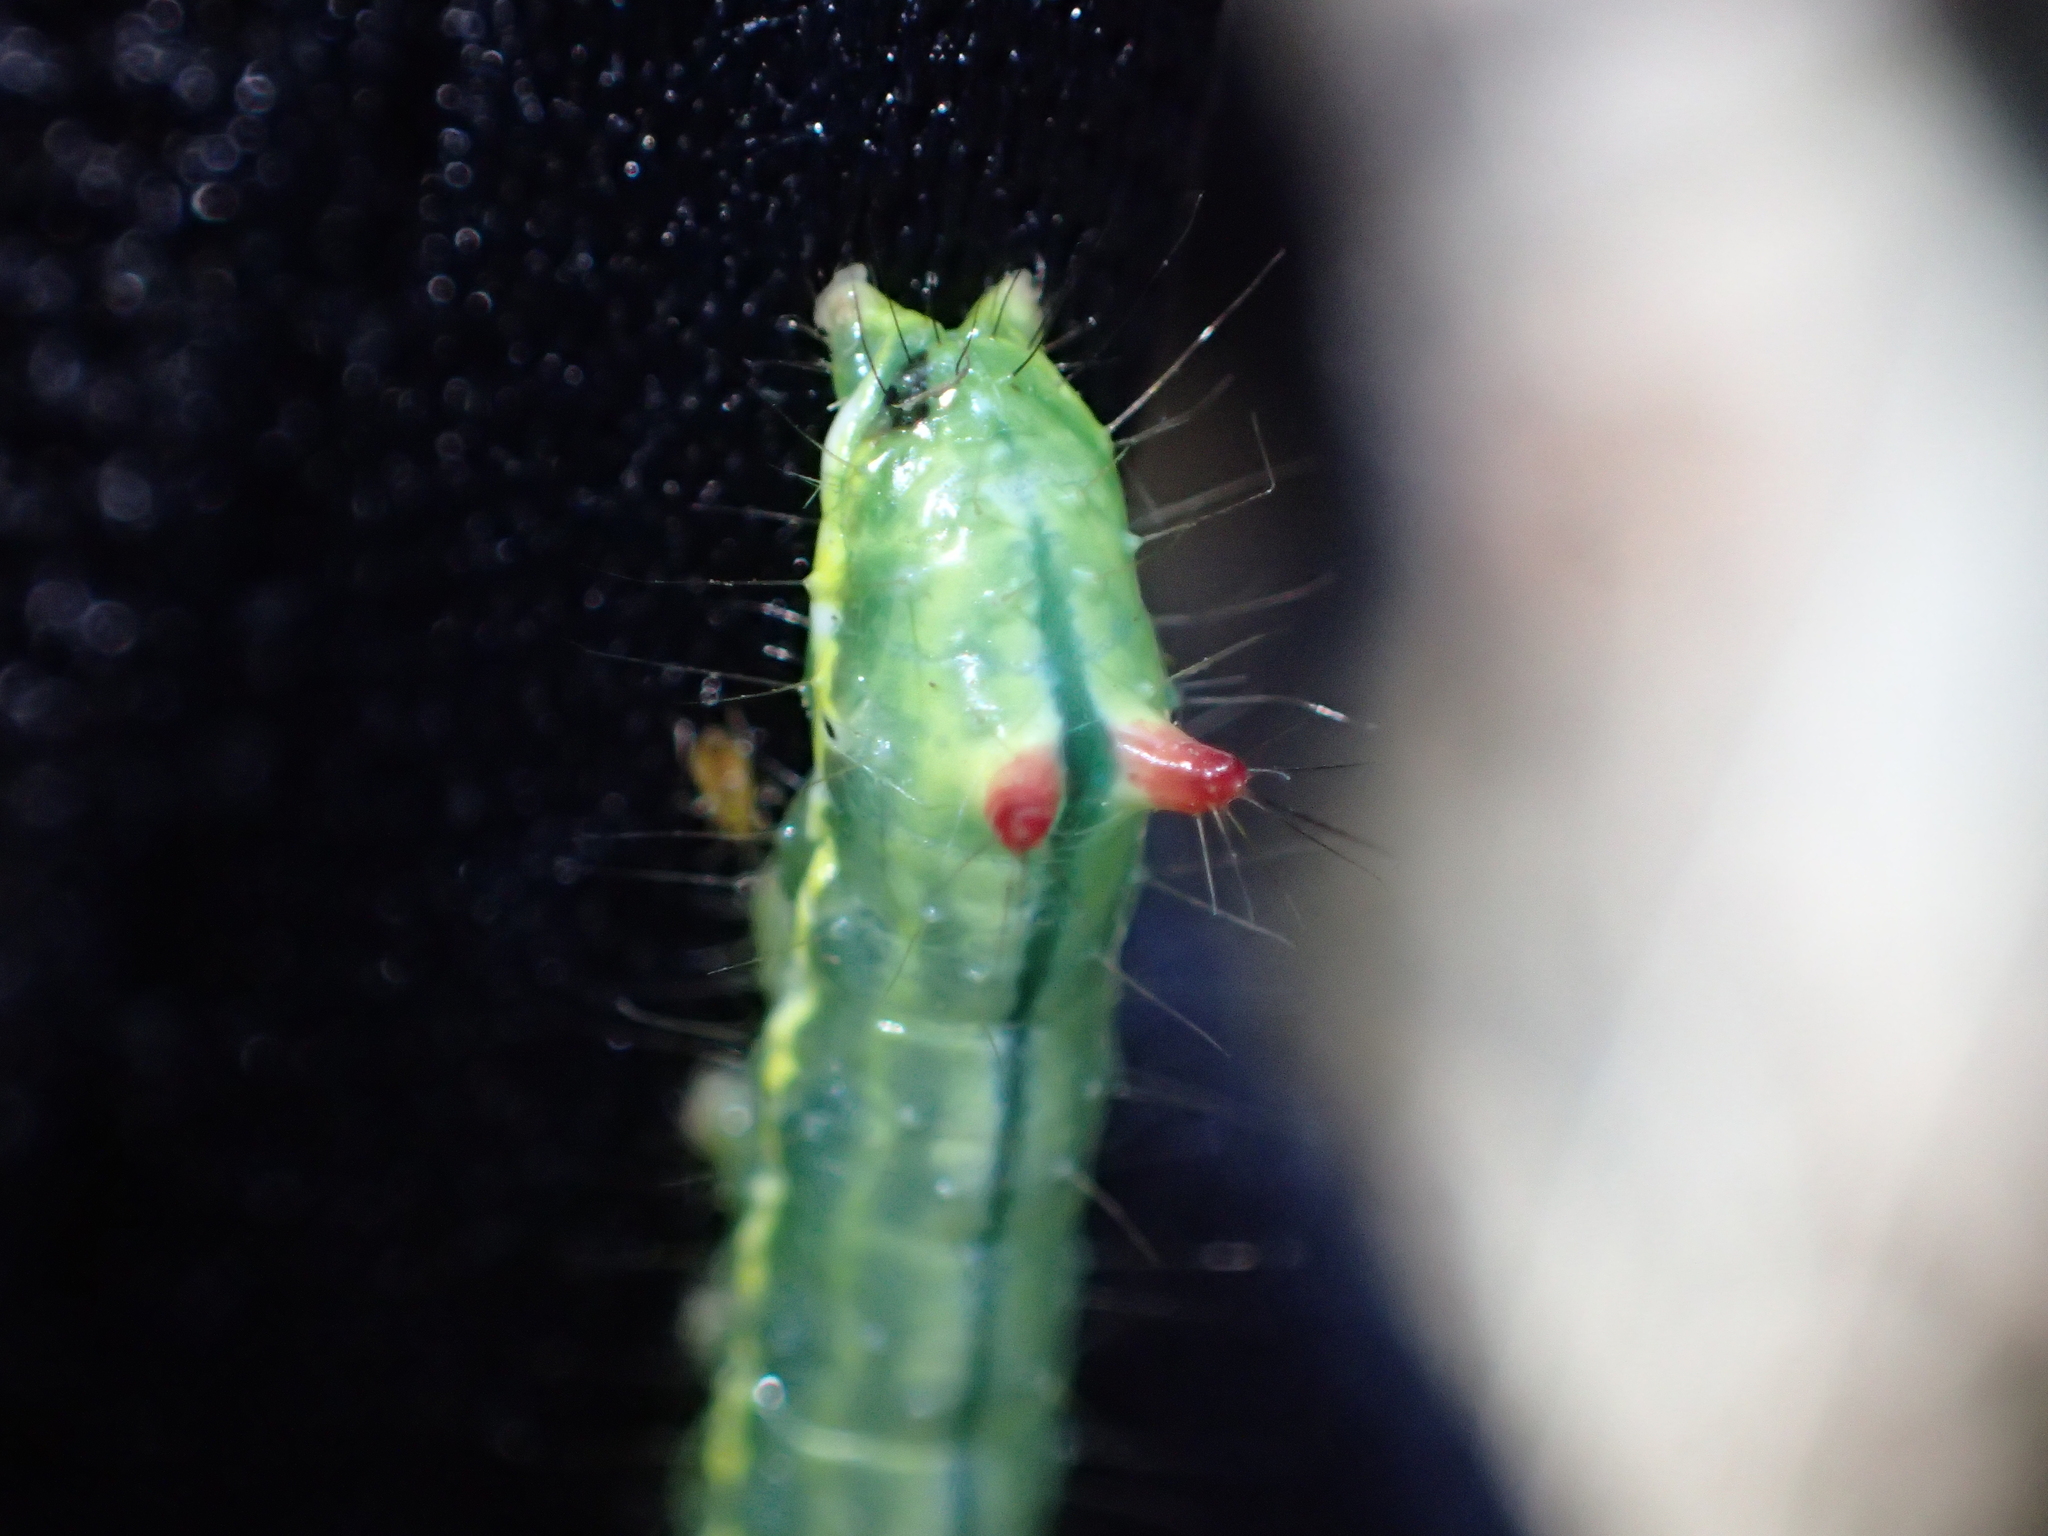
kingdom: Animalia
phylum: Arthropoda
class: Insecta
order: Lepidoptera
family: Notodontidae
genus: Ptilodon
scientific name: Ptilodon capucina
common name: Coxcomb prominent
